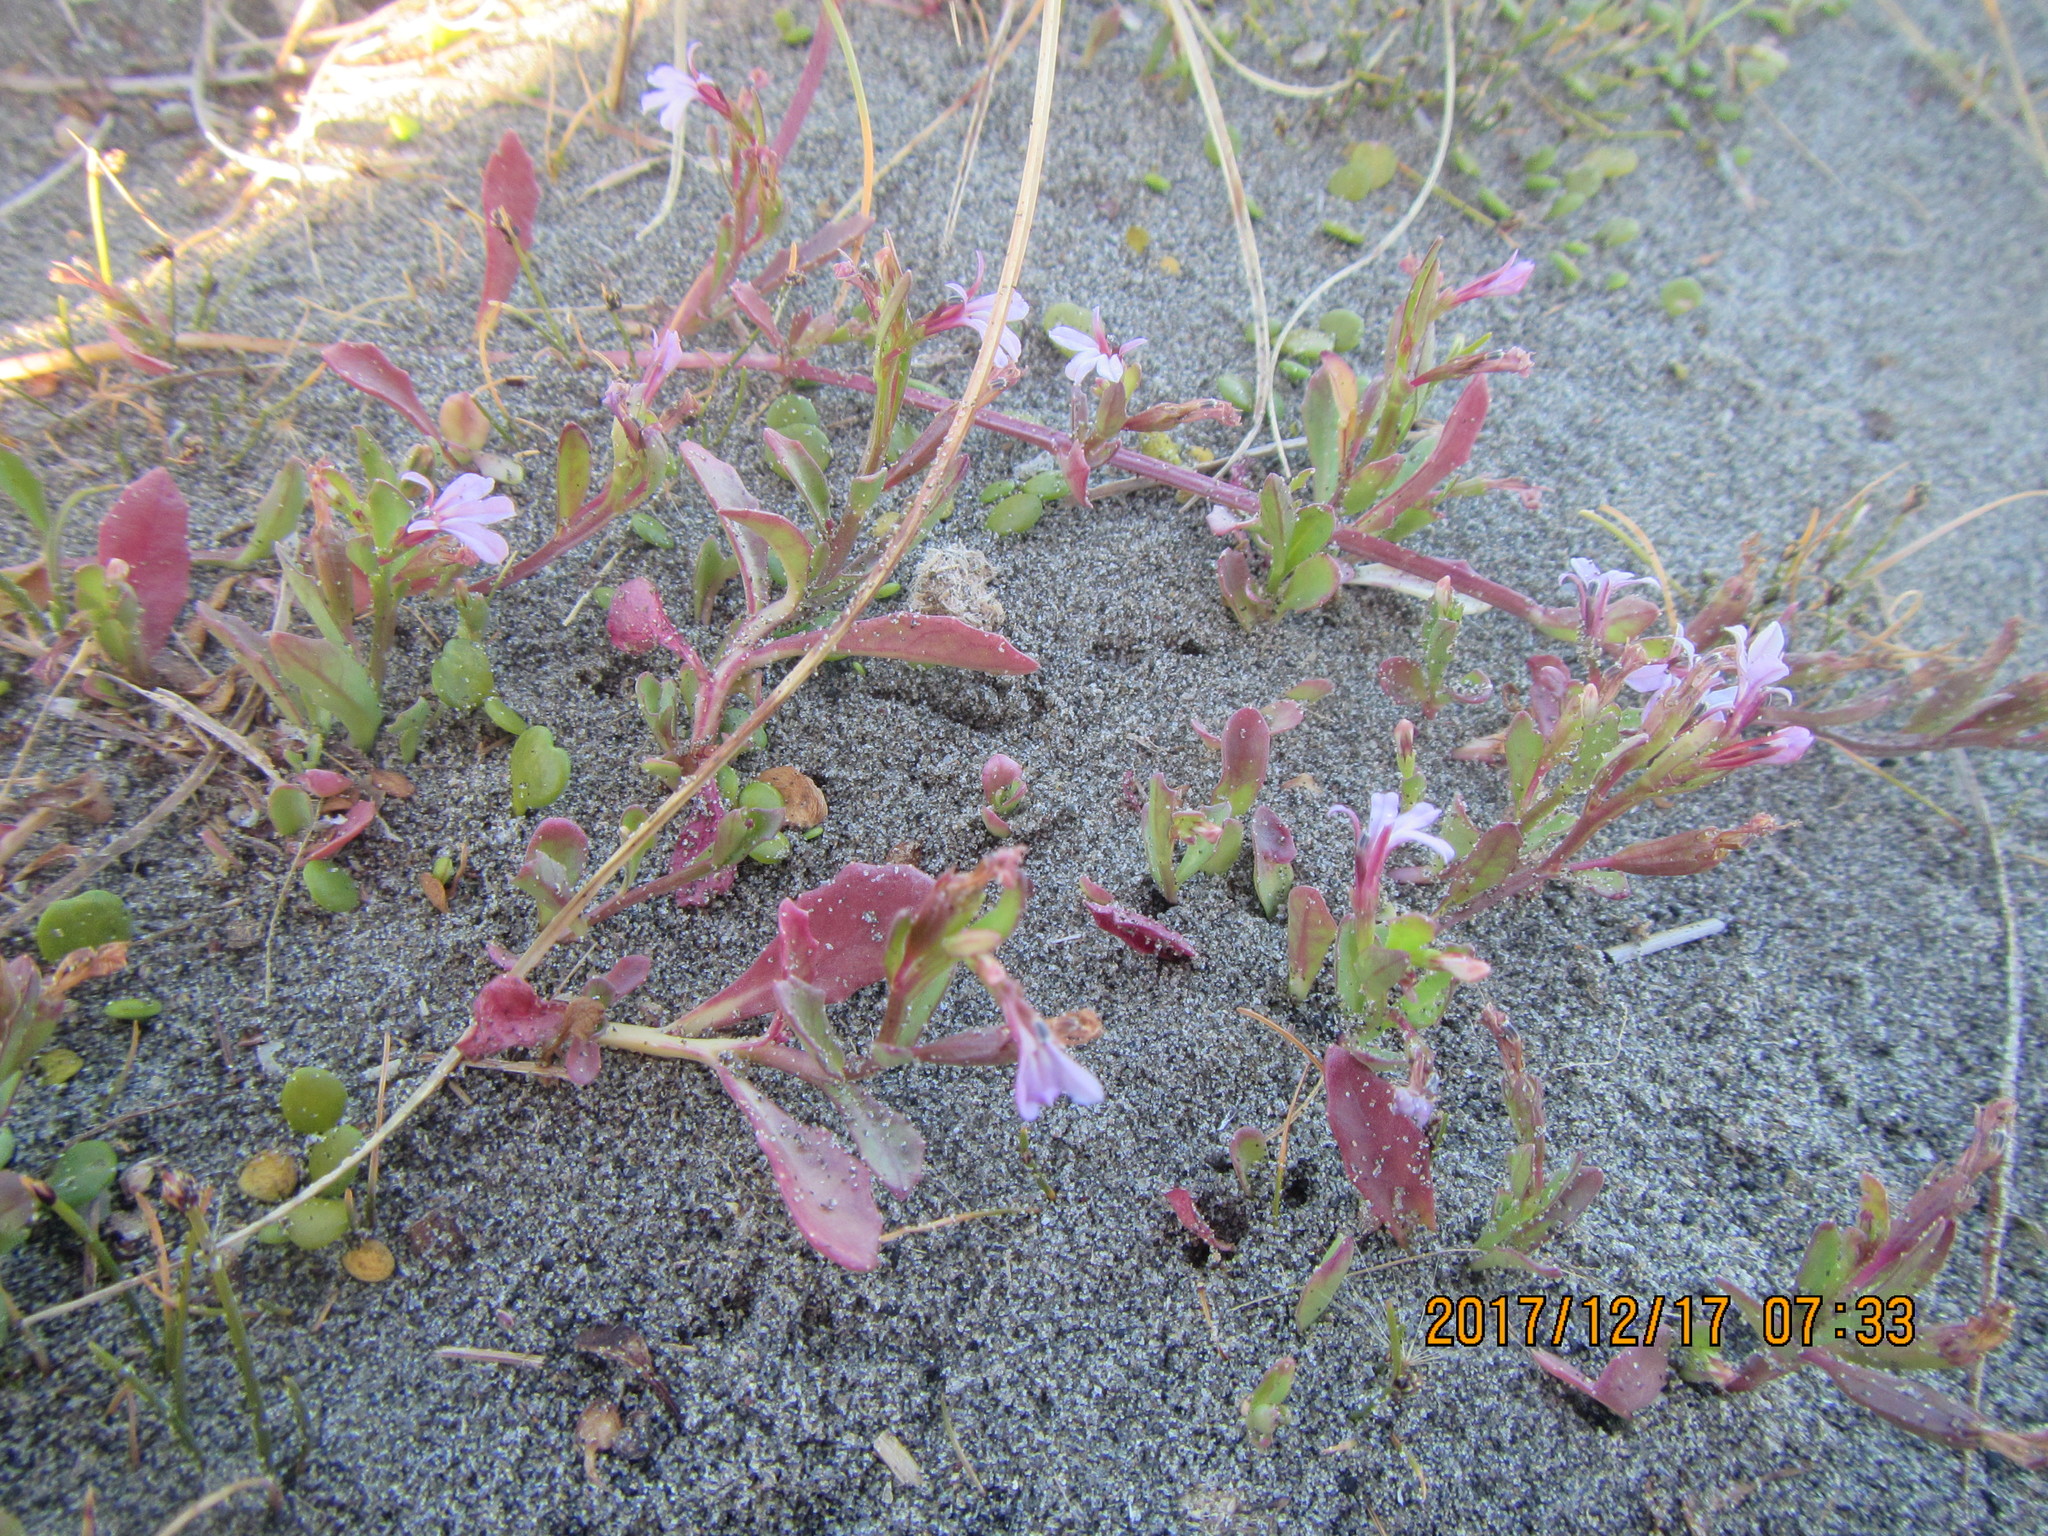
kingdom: Plantae
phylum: Tracheophyta
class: Magnoliopsida
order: Asterales
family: Campanulaceae
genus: Lobelia
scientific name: Lobelia anceps
